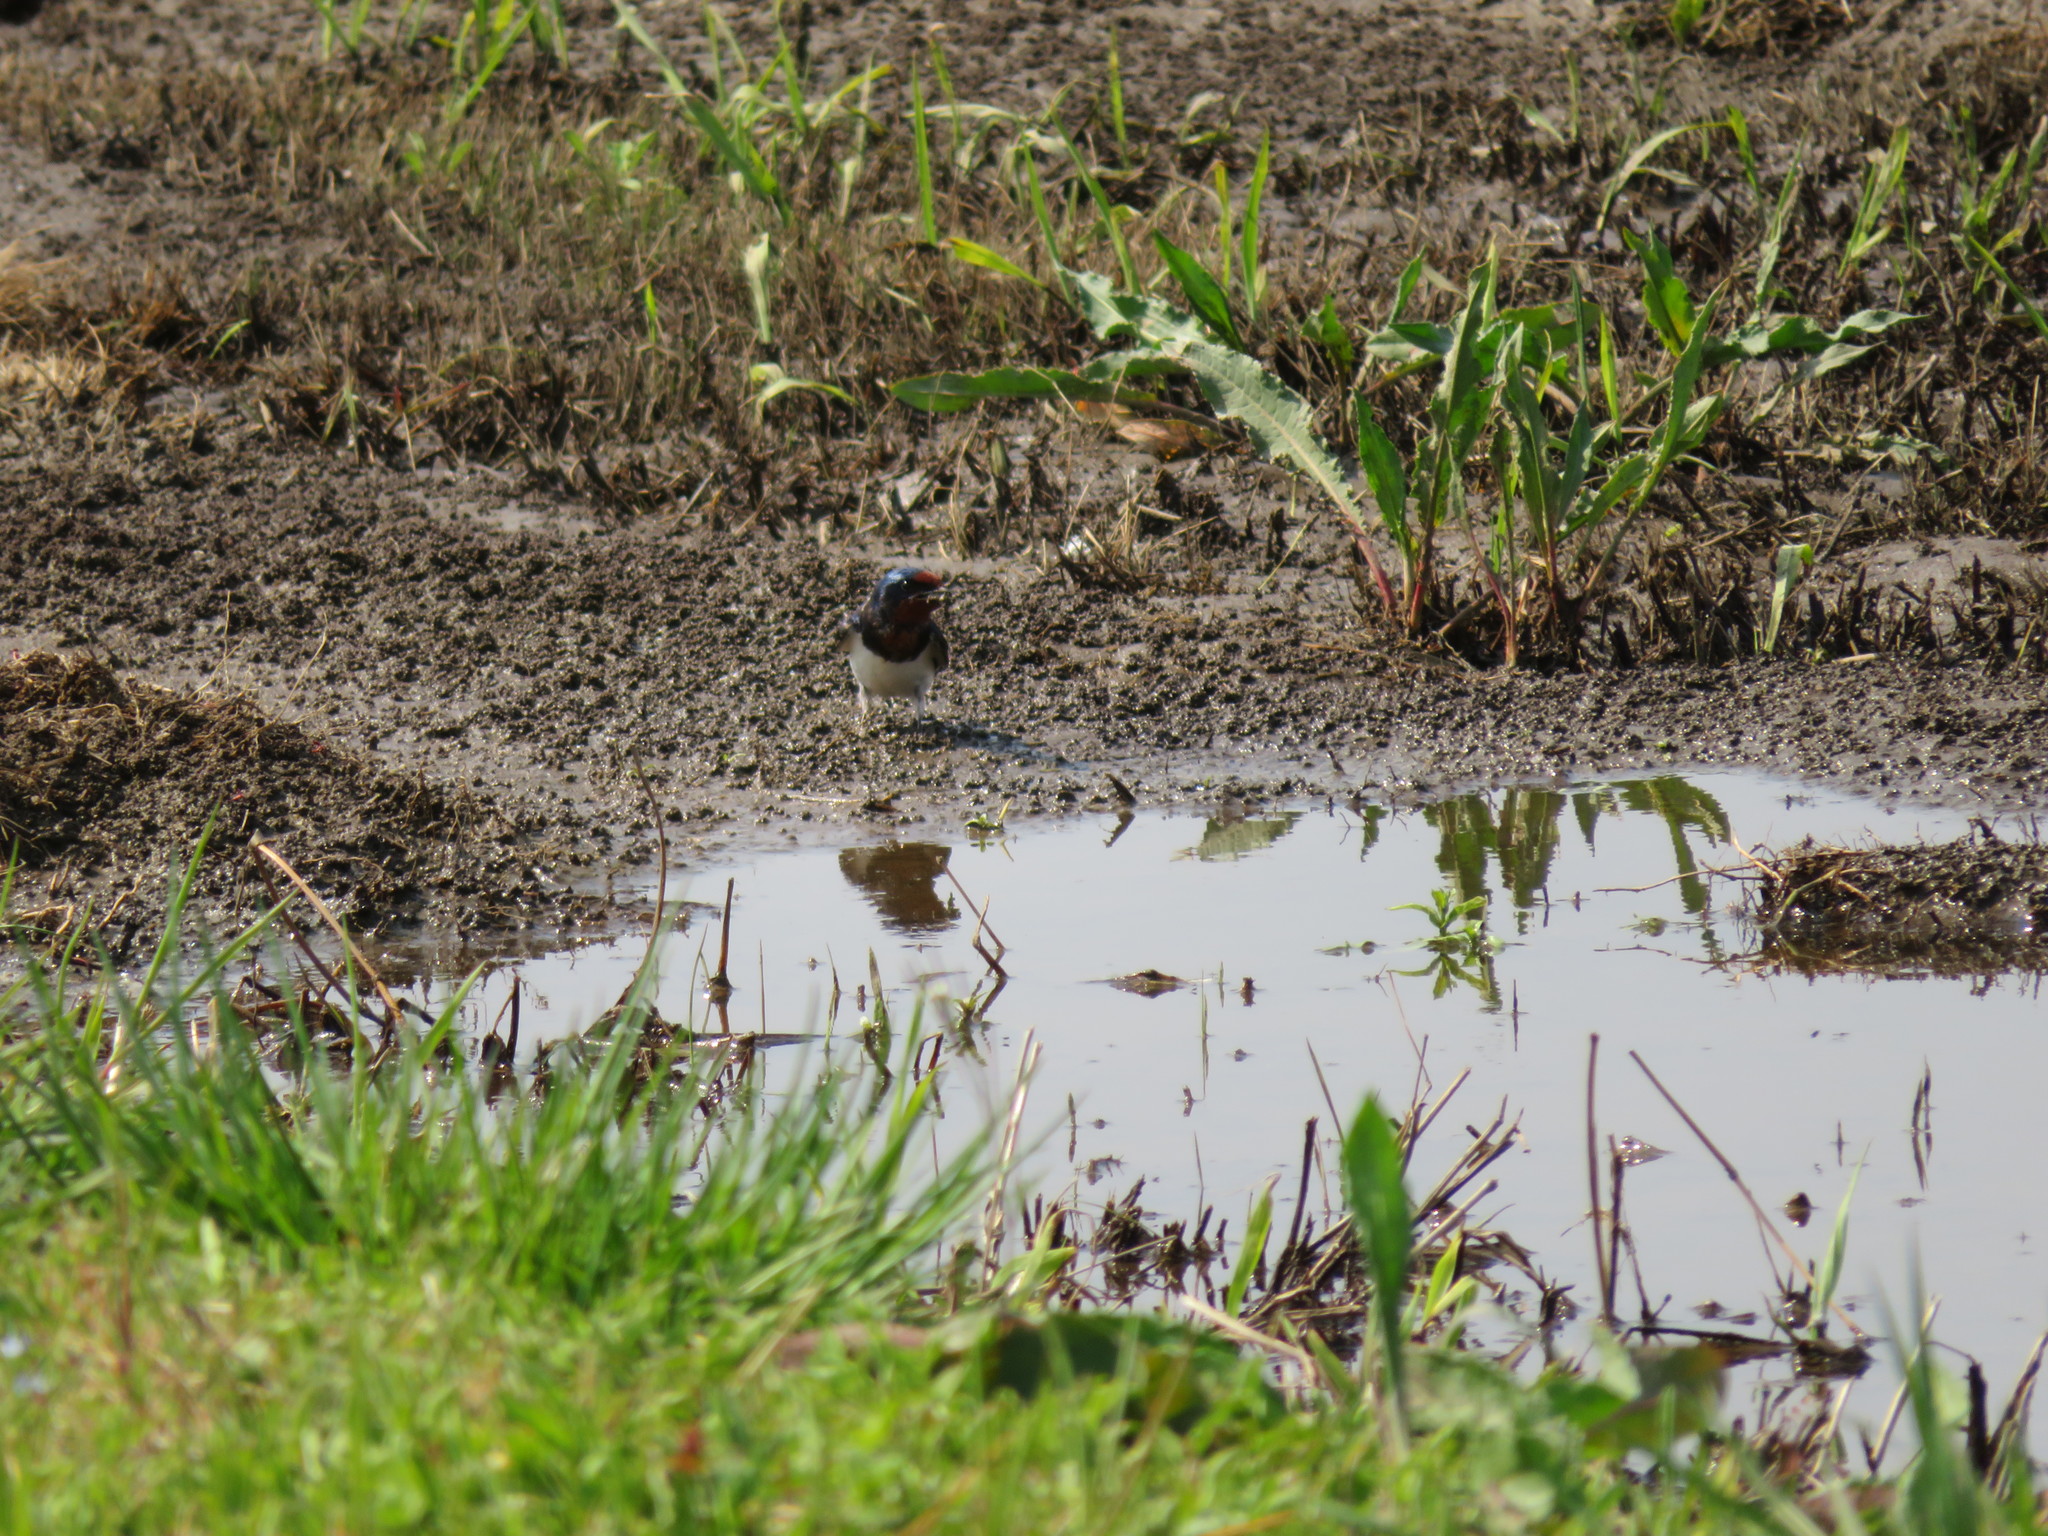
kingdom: Animalia
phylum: Chordata
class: Aves
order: Passeriformes
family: Hirundinidae
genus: Hirundo
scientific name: Hirundo rustica
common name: Barn swallow
